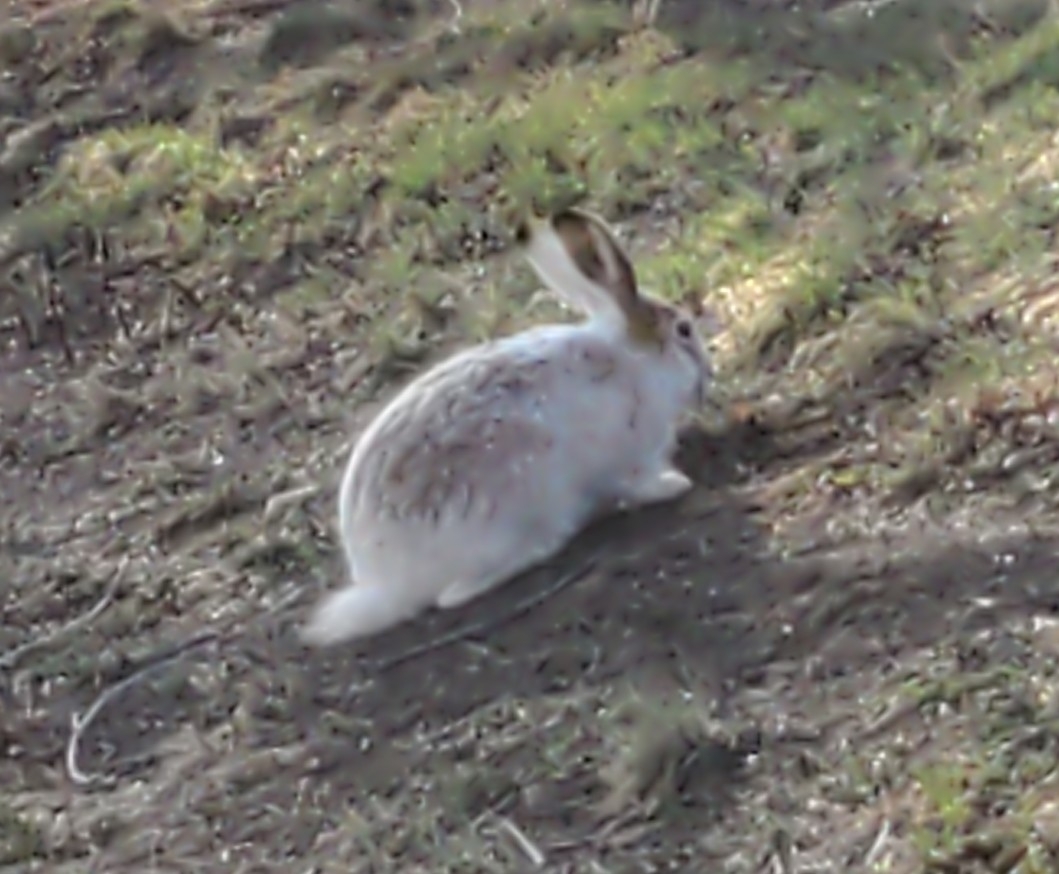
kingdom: Animalia
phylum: Chordata
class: Mammalia
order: Lagomorpha
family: Leporidae
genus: Lepus
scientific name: Lepus townsendii
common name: White-tailed jackrabbit
